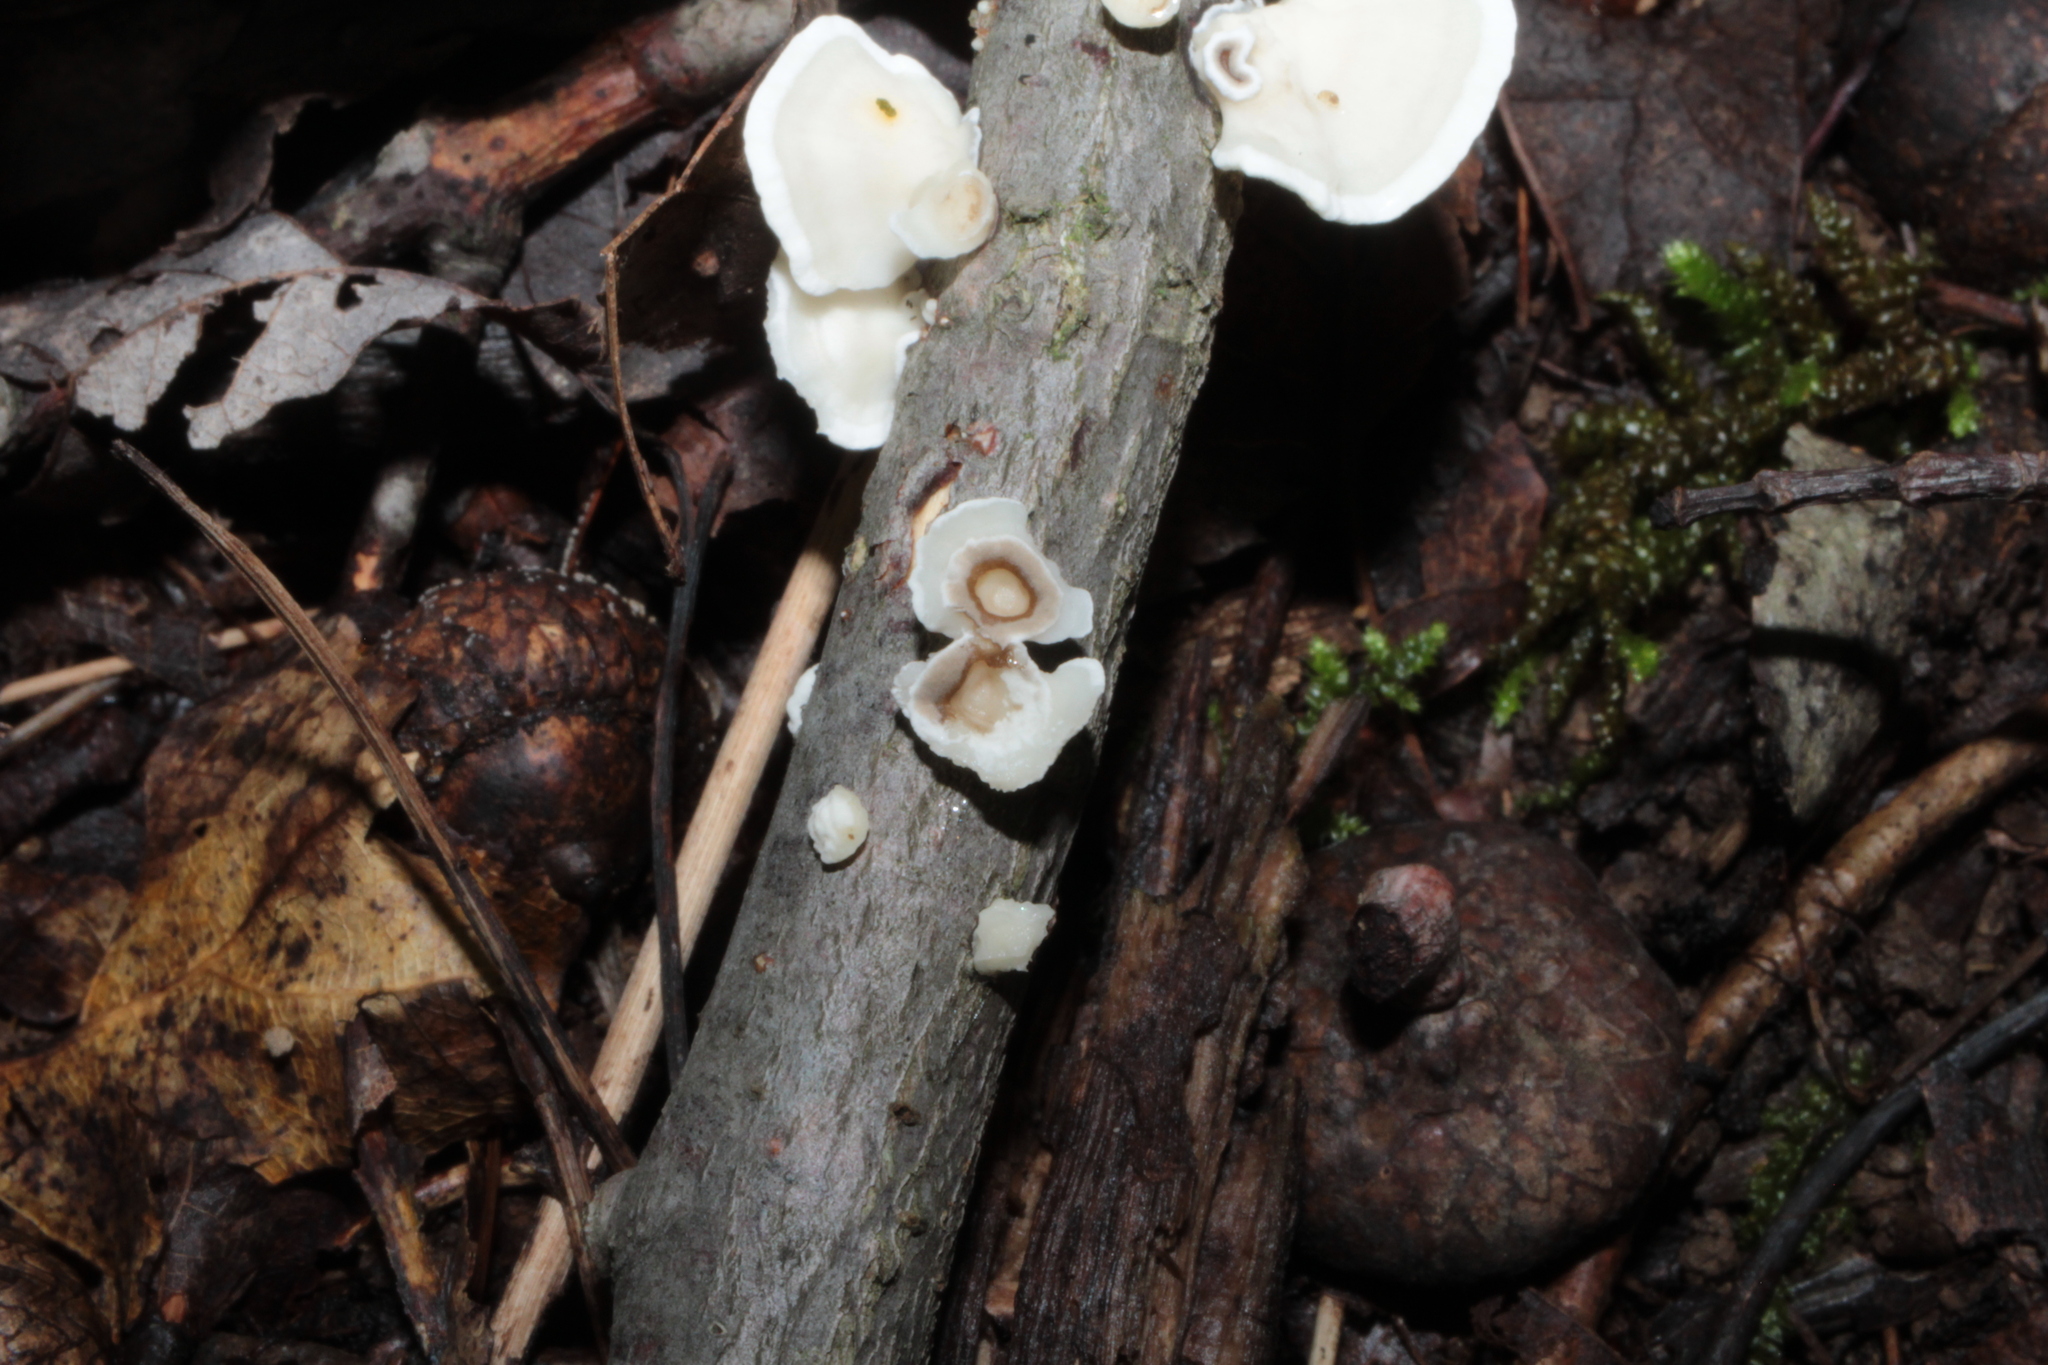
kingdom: Fungi
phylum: Basidiomycota
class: Agaricomycetes
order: Polyporales
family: Polyporaceae
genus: Poronidulus
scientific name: Poronidulus conchifer
